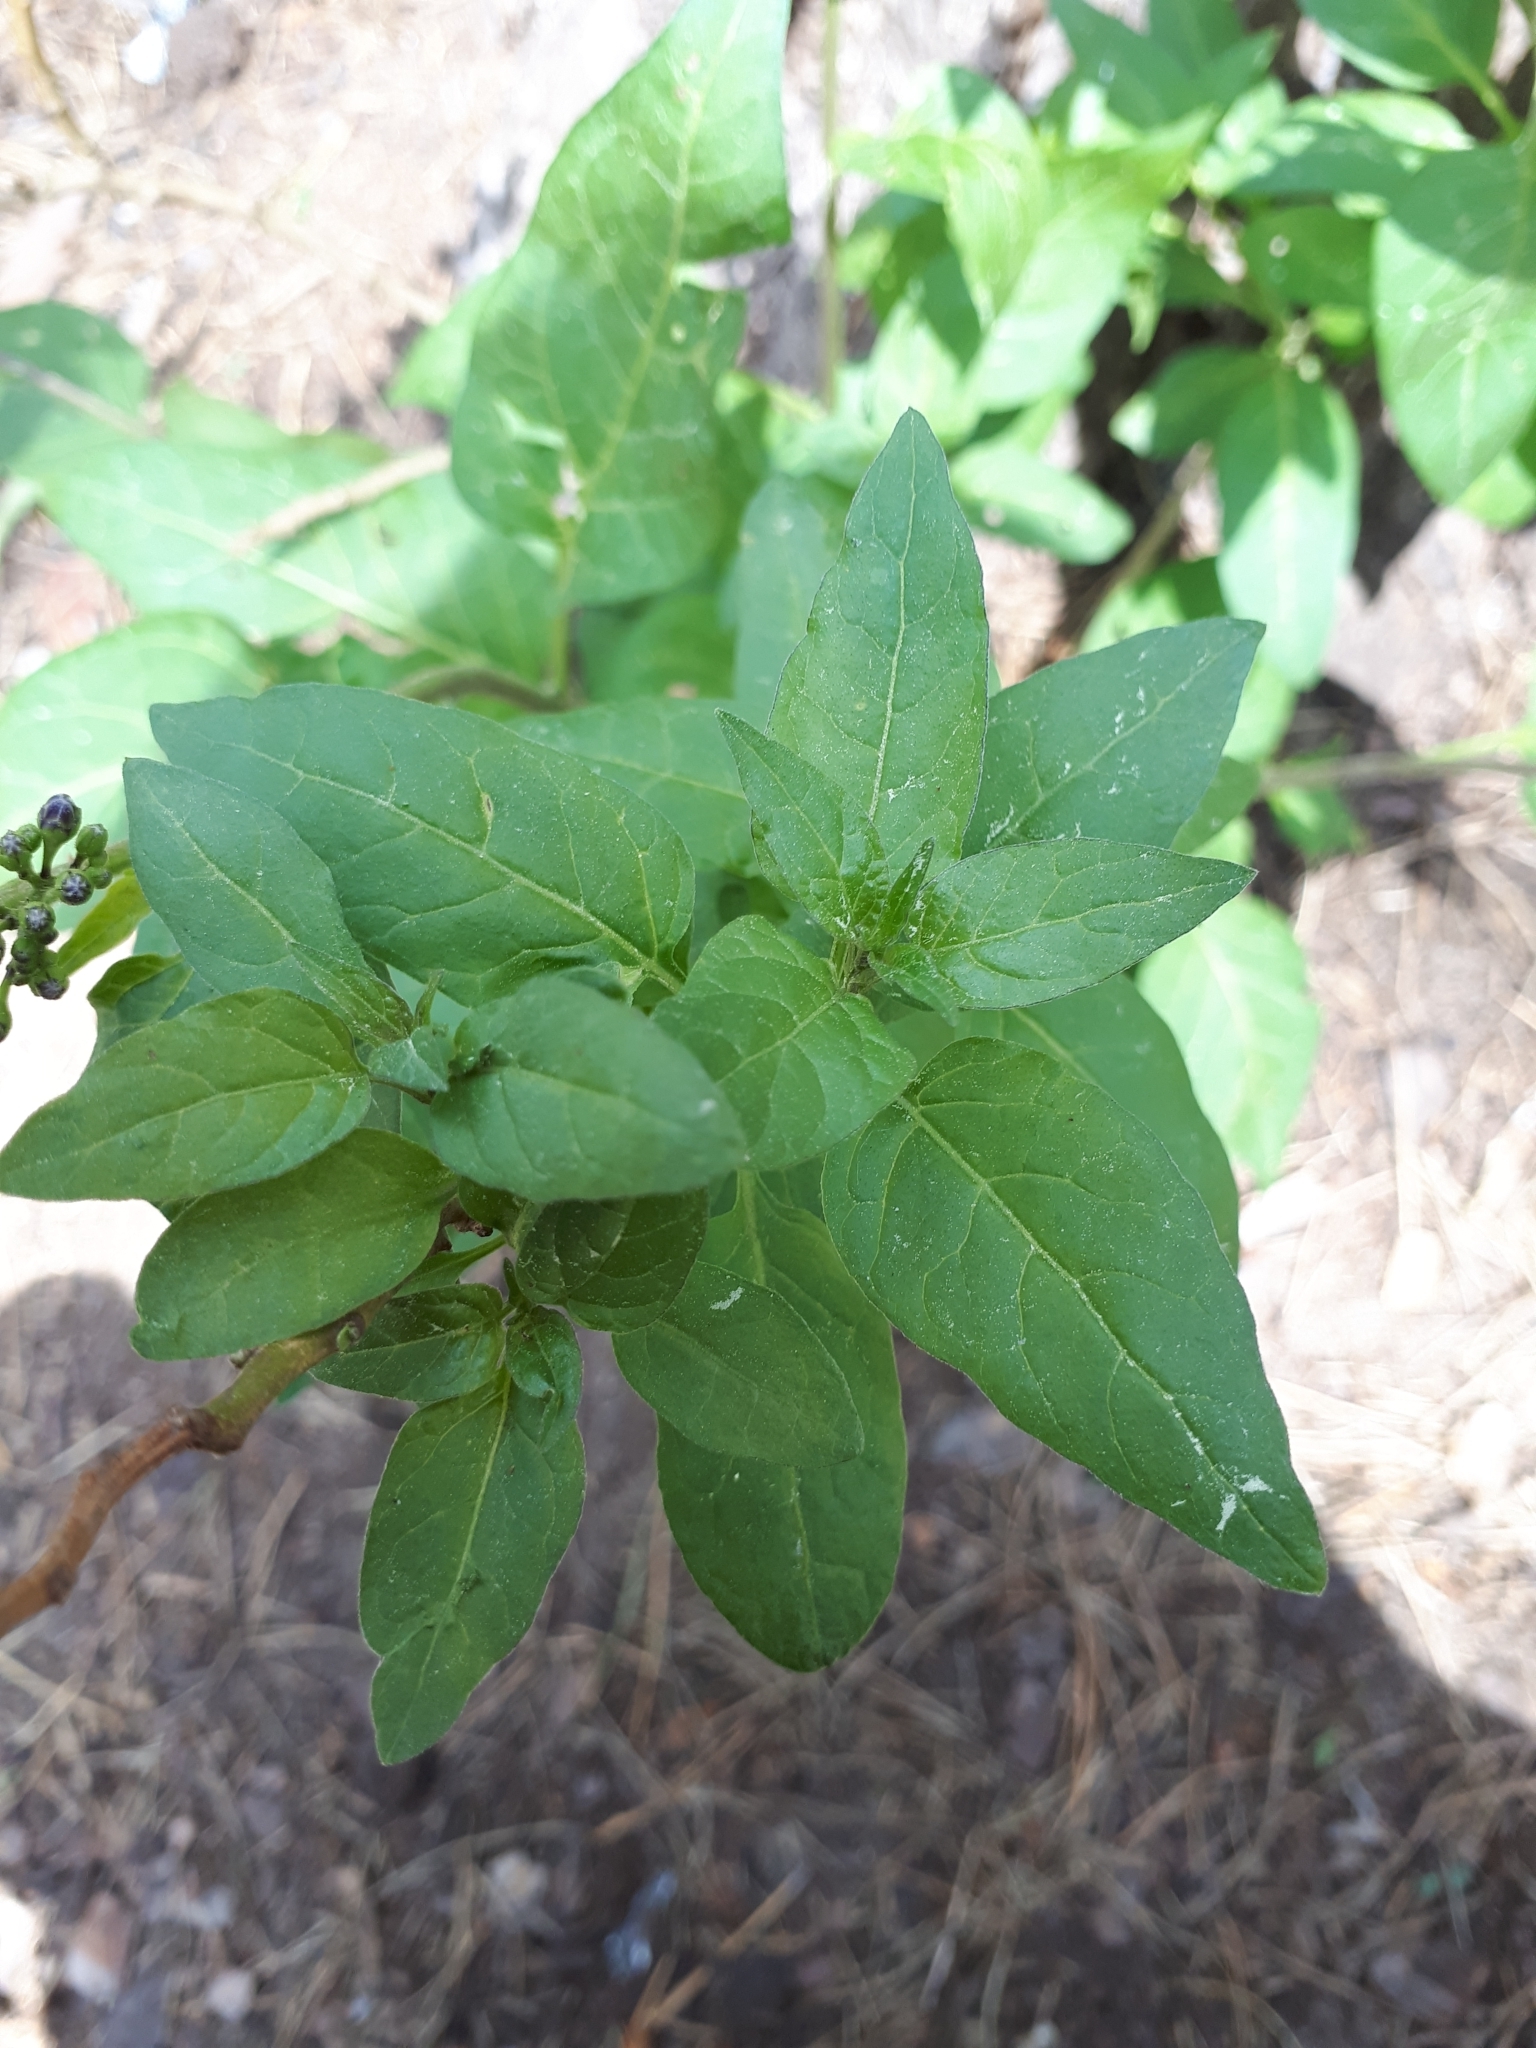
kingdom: Plantae
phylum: Tracheophyta
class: Magnoliopsida
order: Solanales
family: Solanaceae
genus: Solanum
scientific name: Solanum dulcamara
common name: Climbing nightshade
